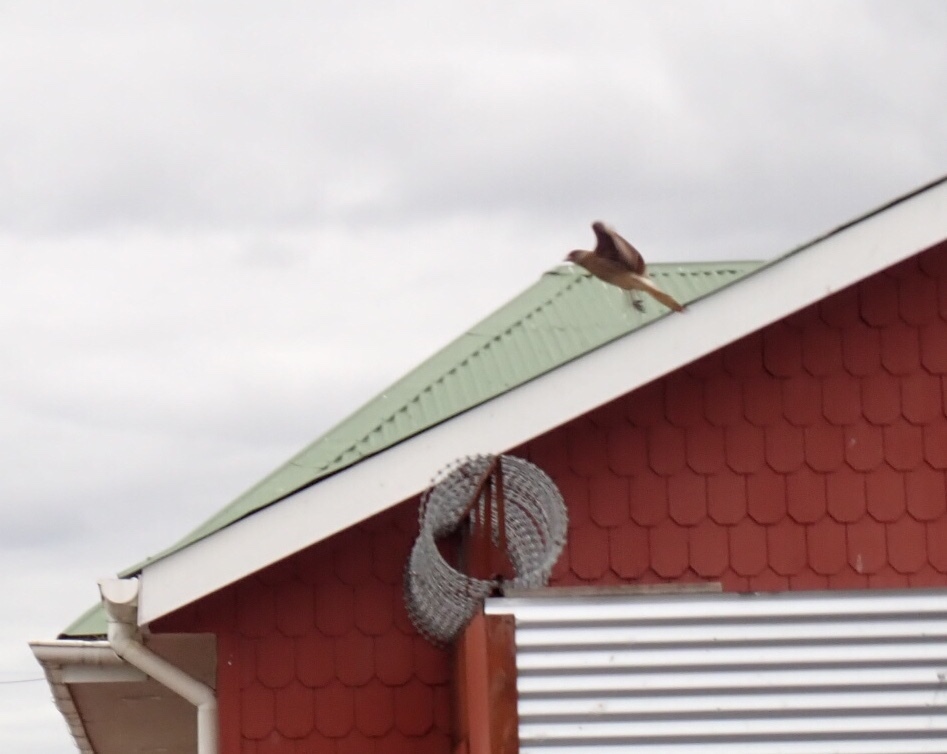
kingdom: Animalia
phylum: Chordata
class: Aves
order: Falconiformes
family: Falconidae
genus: Daptrius
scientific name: Daptrius
